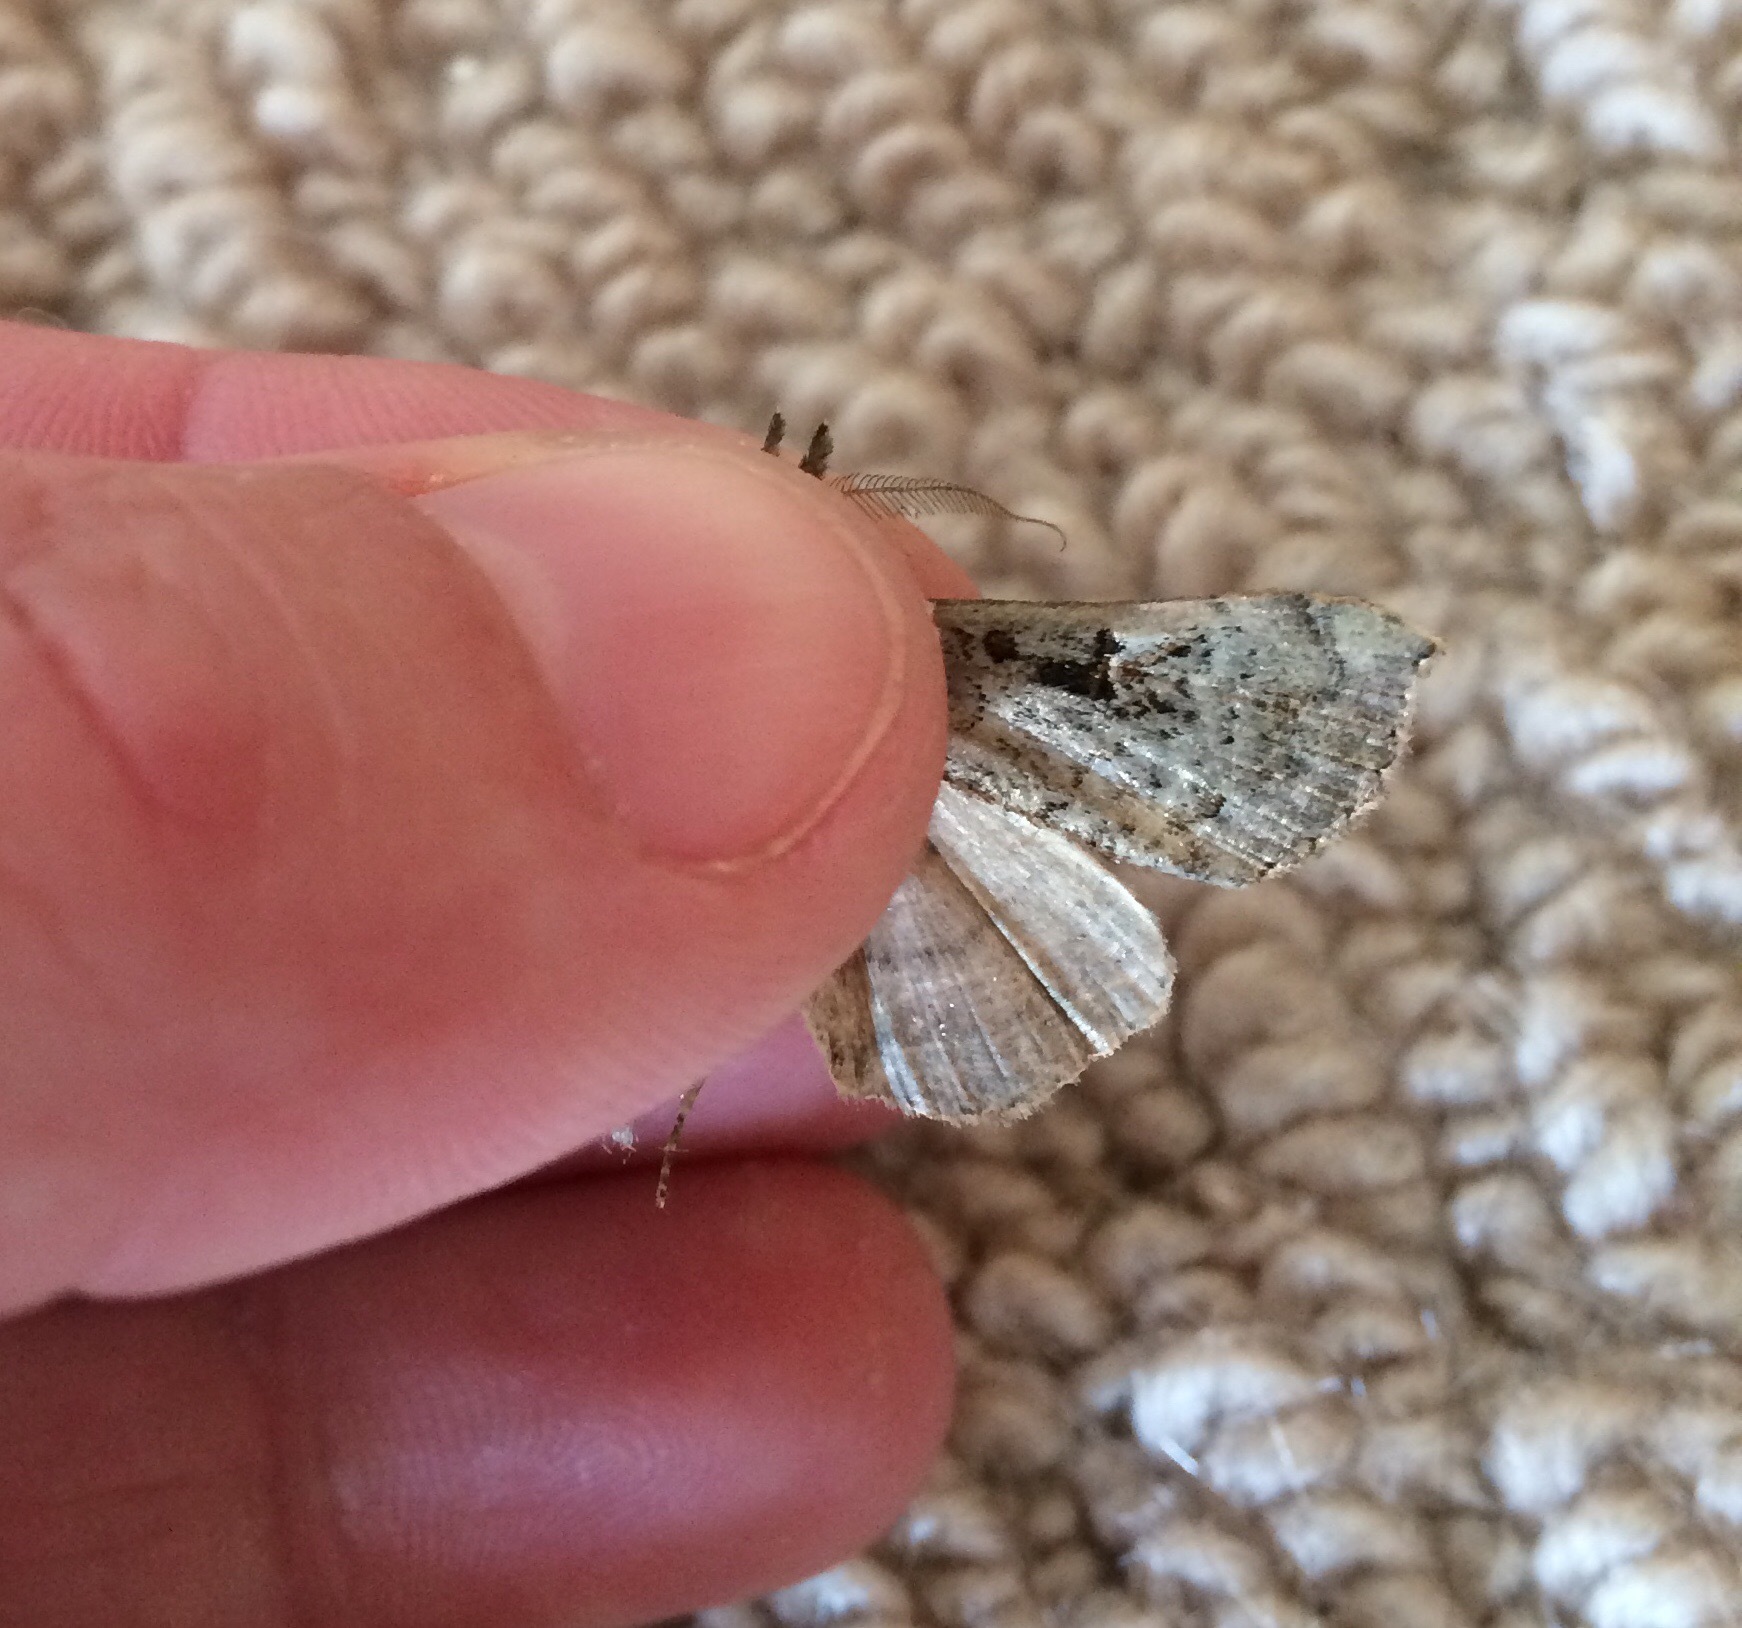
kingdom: Animalia
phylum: Arthropoda
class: Insecta
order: Lepidoptera
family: Erebidae
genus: Rhapsa
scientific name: Rhapsa scotosialis
